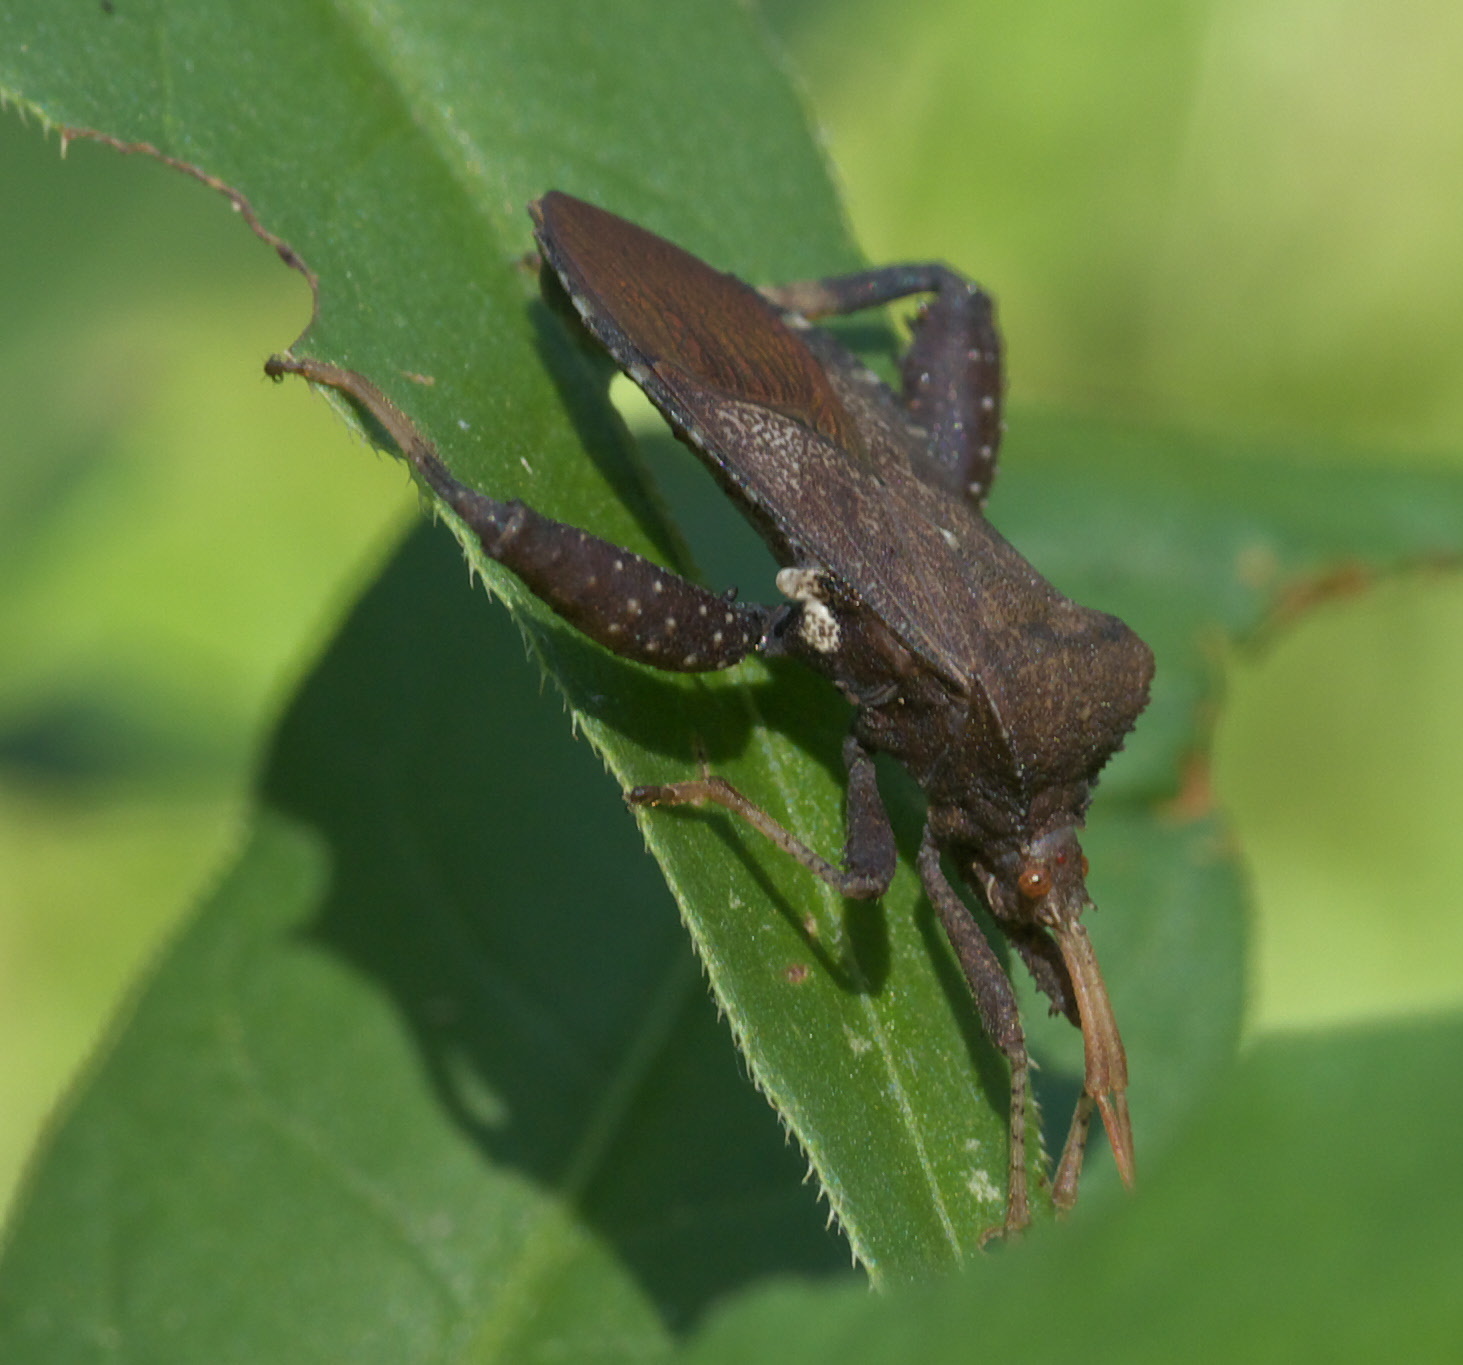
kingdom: Animalia
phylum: Arthropoda
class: Insecta
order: Hemiptera
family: Coreidae
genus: Euthochtha
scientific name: Euthochtha galeator
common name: Helmeted squash bug
